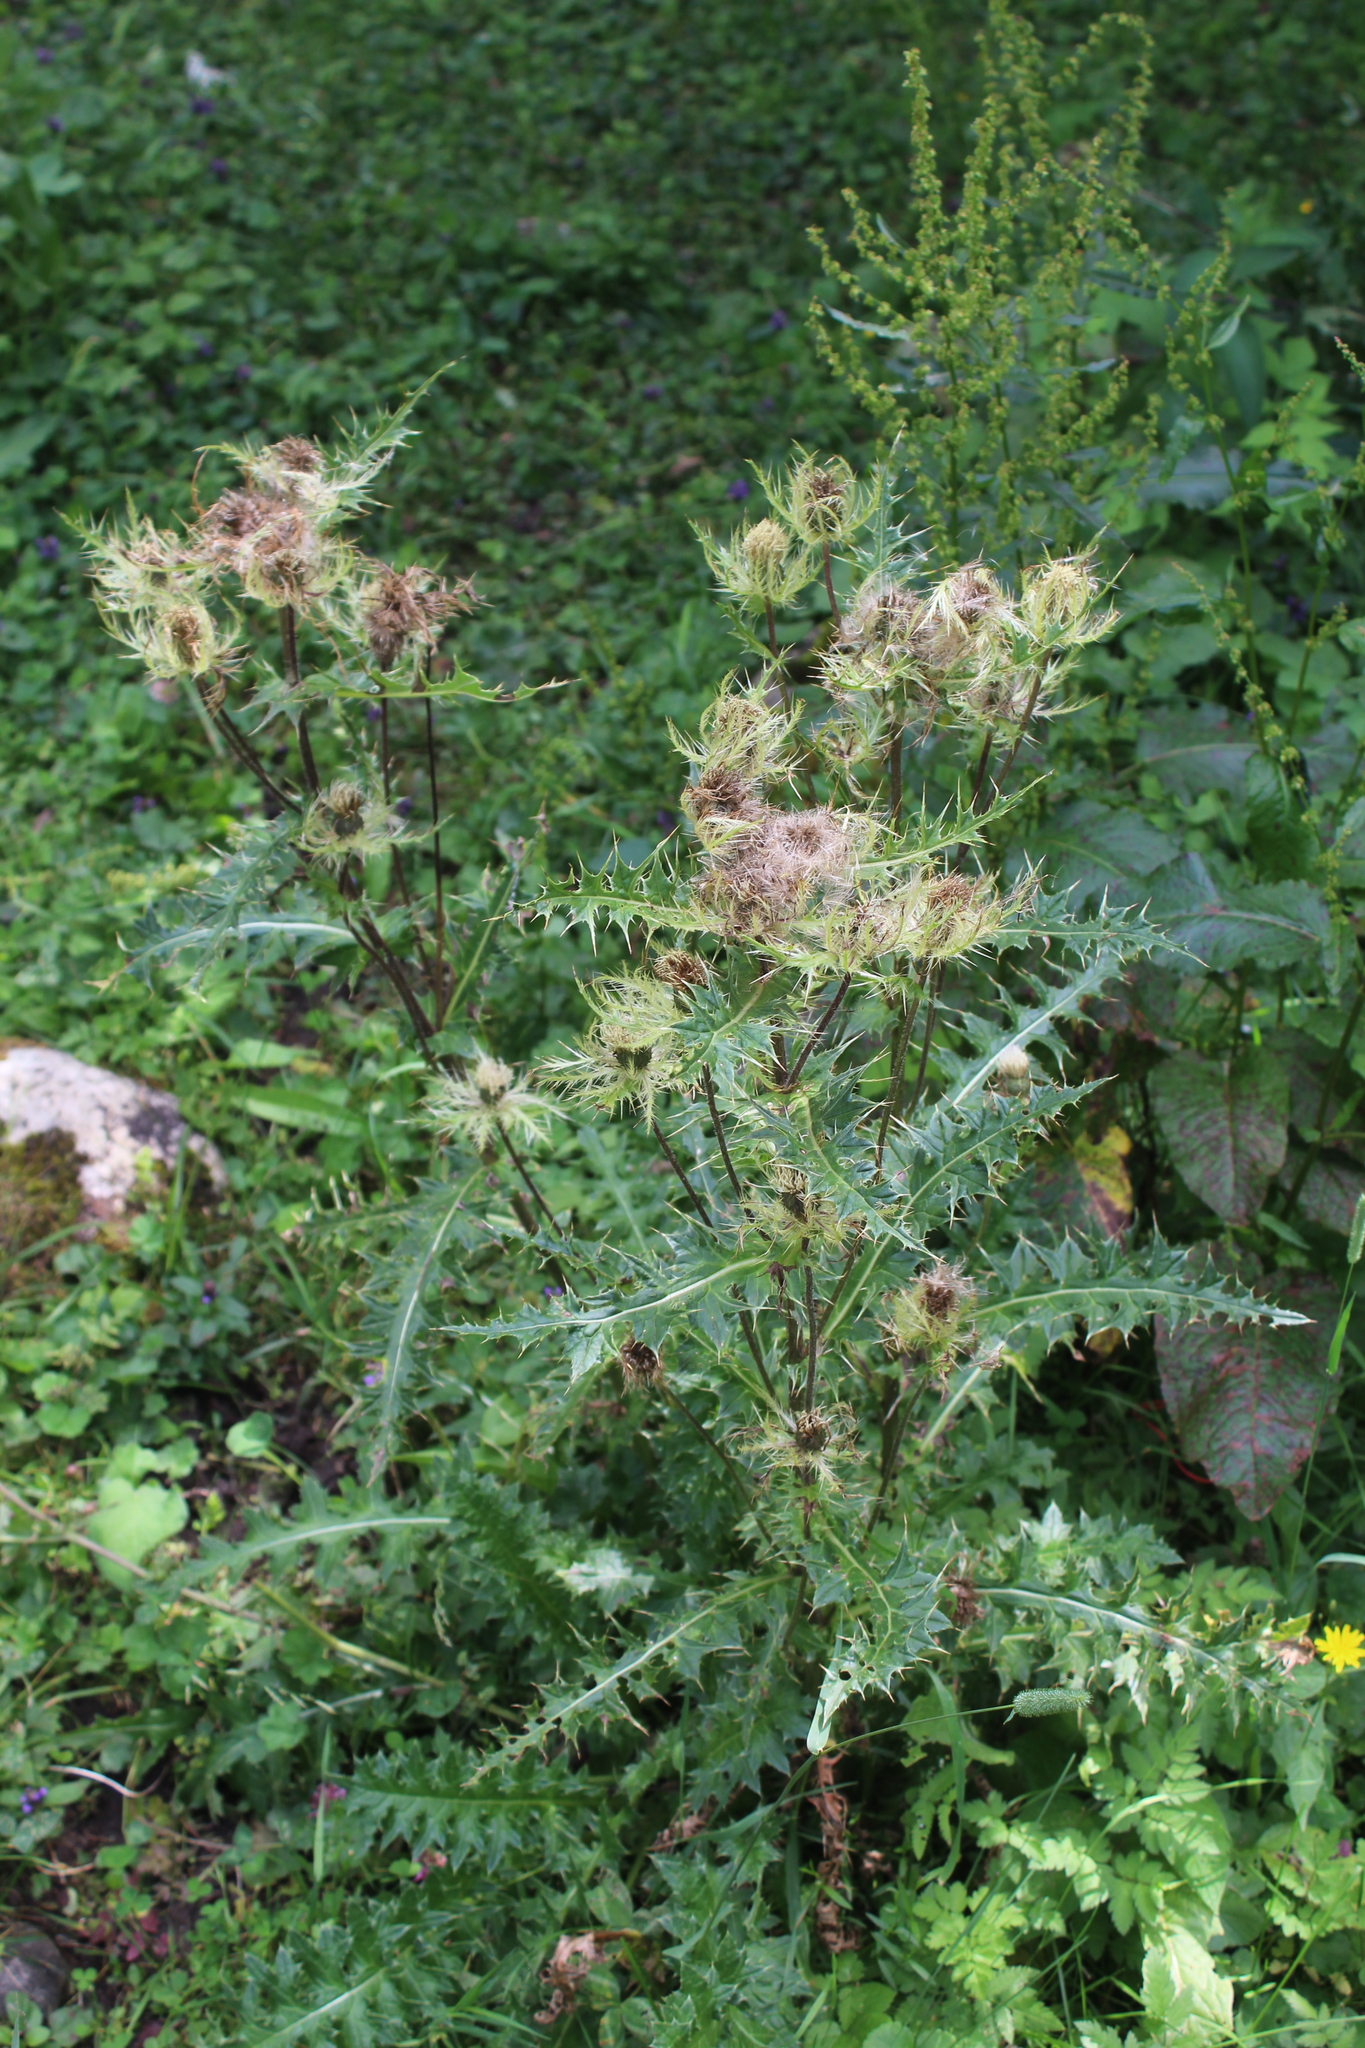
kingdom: Plantae
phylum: Tracheophyta
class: Magnoliopsida
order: Asterales
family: Asteraceae
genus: Cirsium
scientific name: Cirsium obvallatum
